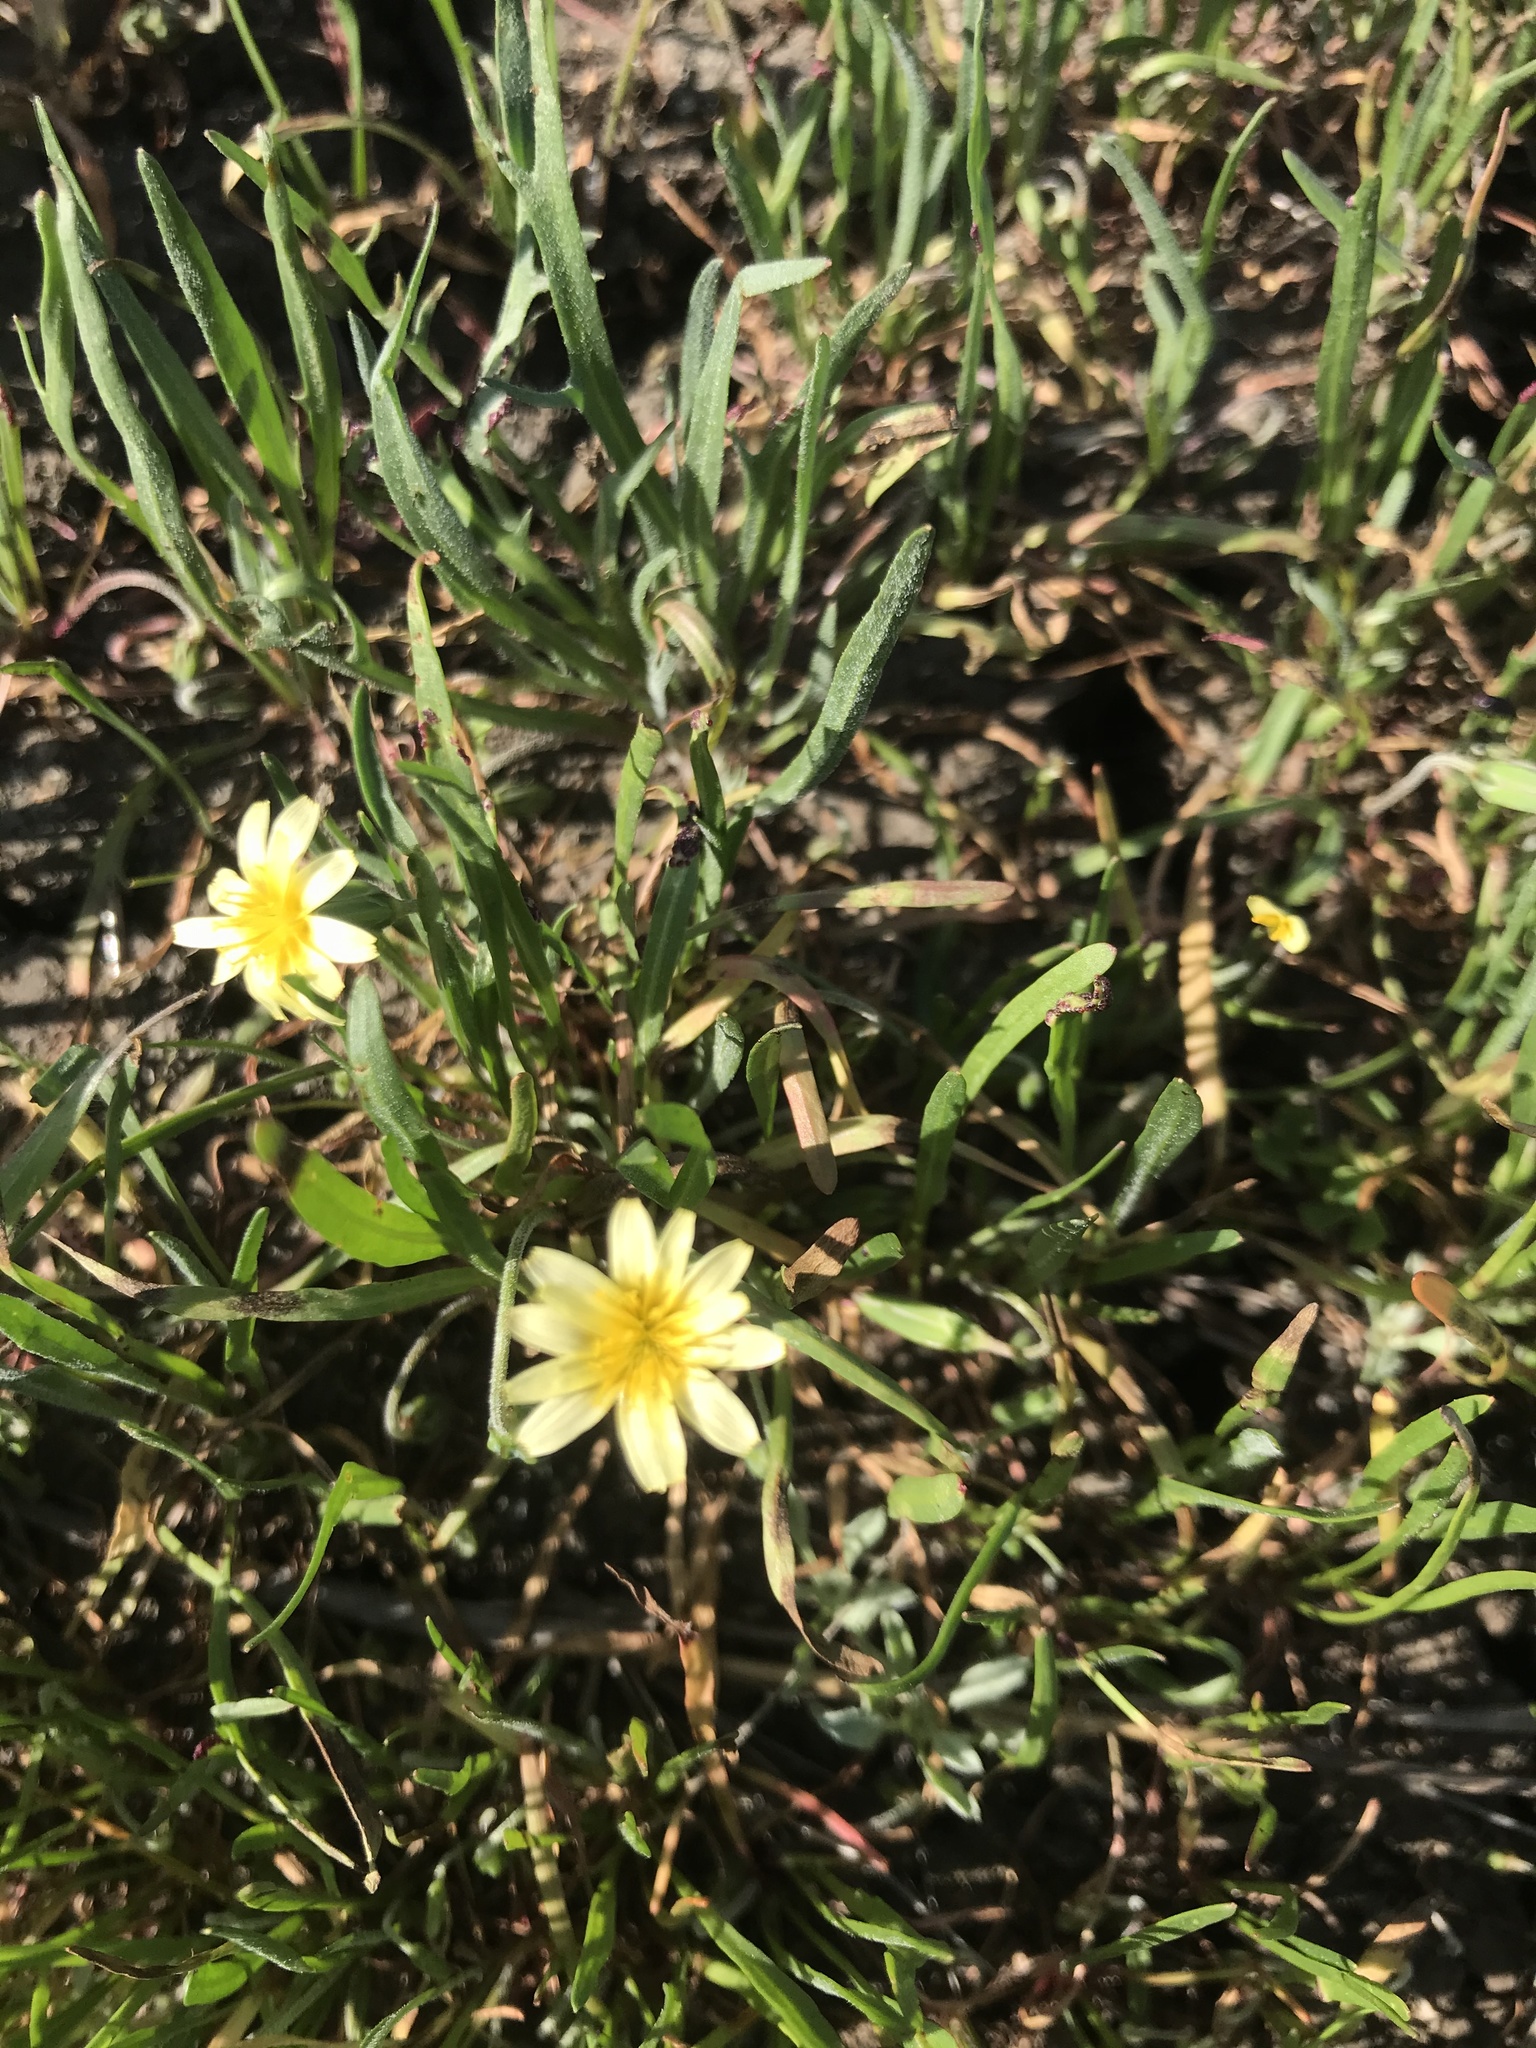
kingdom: Plantae
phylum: Tracheophyta
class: Magnoliopsida
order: Asterales
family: Asteraceae
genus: Microseris
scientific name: Microseris douglasii
